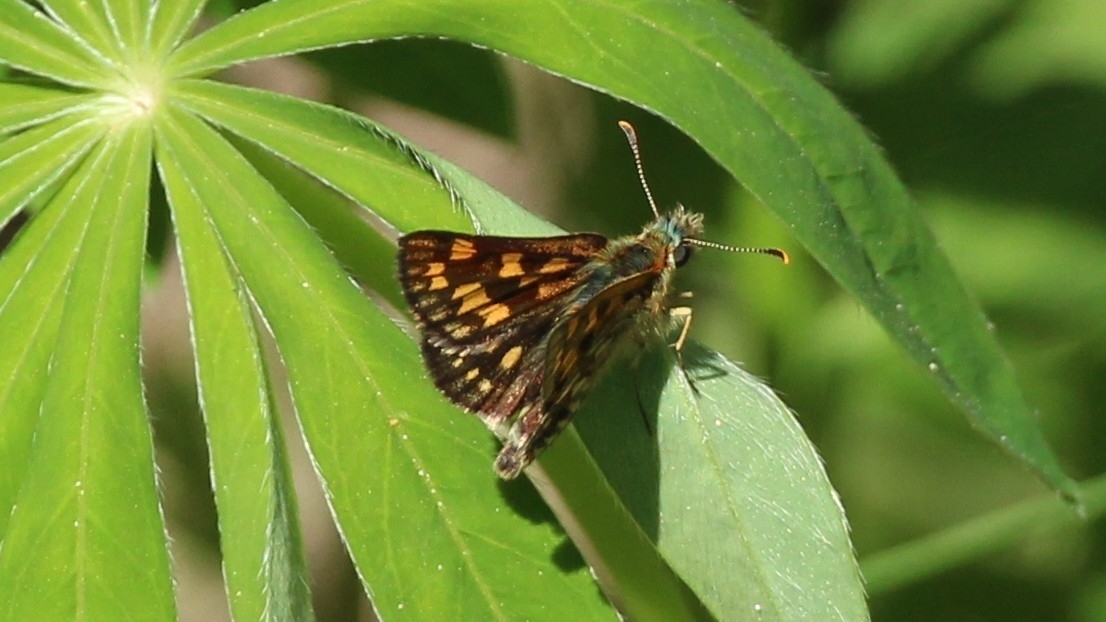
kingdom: Animalia
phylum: Arthropoda
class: Insecta
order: Lepidoptera
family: Hesperiidae
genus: Carterocephalus
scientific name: Carterocephalus palaemon
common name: Chequered skipper
